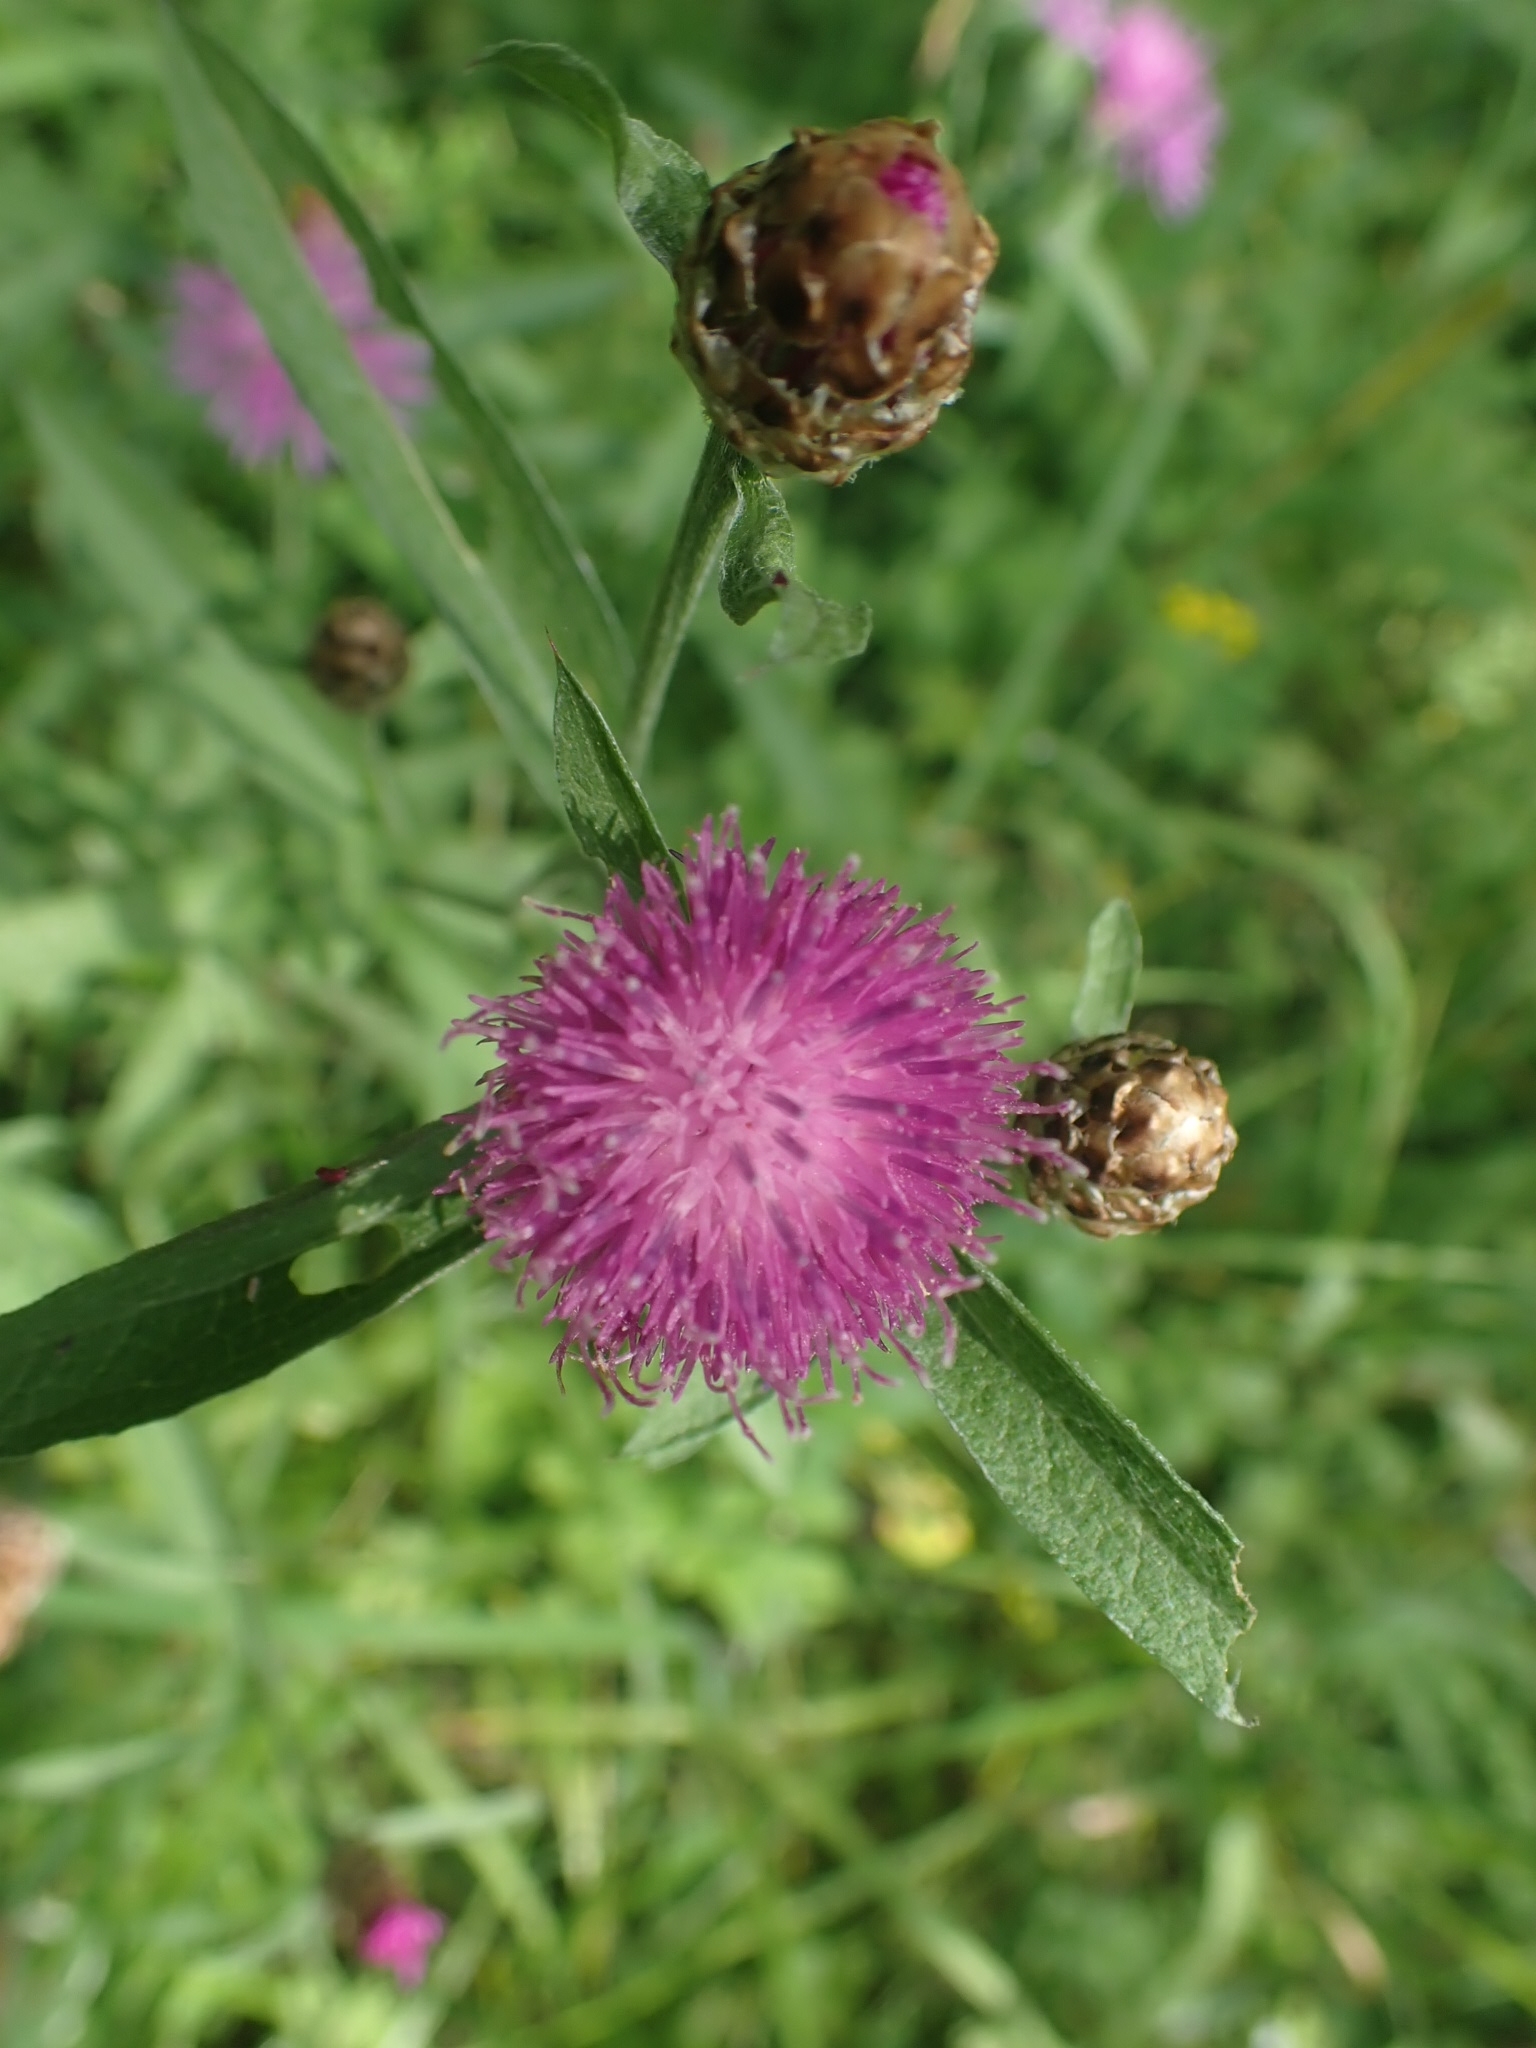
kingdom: Plantae
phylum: Tracheophyta
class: Magnoliopsida
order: Asterales
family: Asteraceae
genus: Centaurea
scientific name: Centaurea jacea
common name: Brown knapweed
